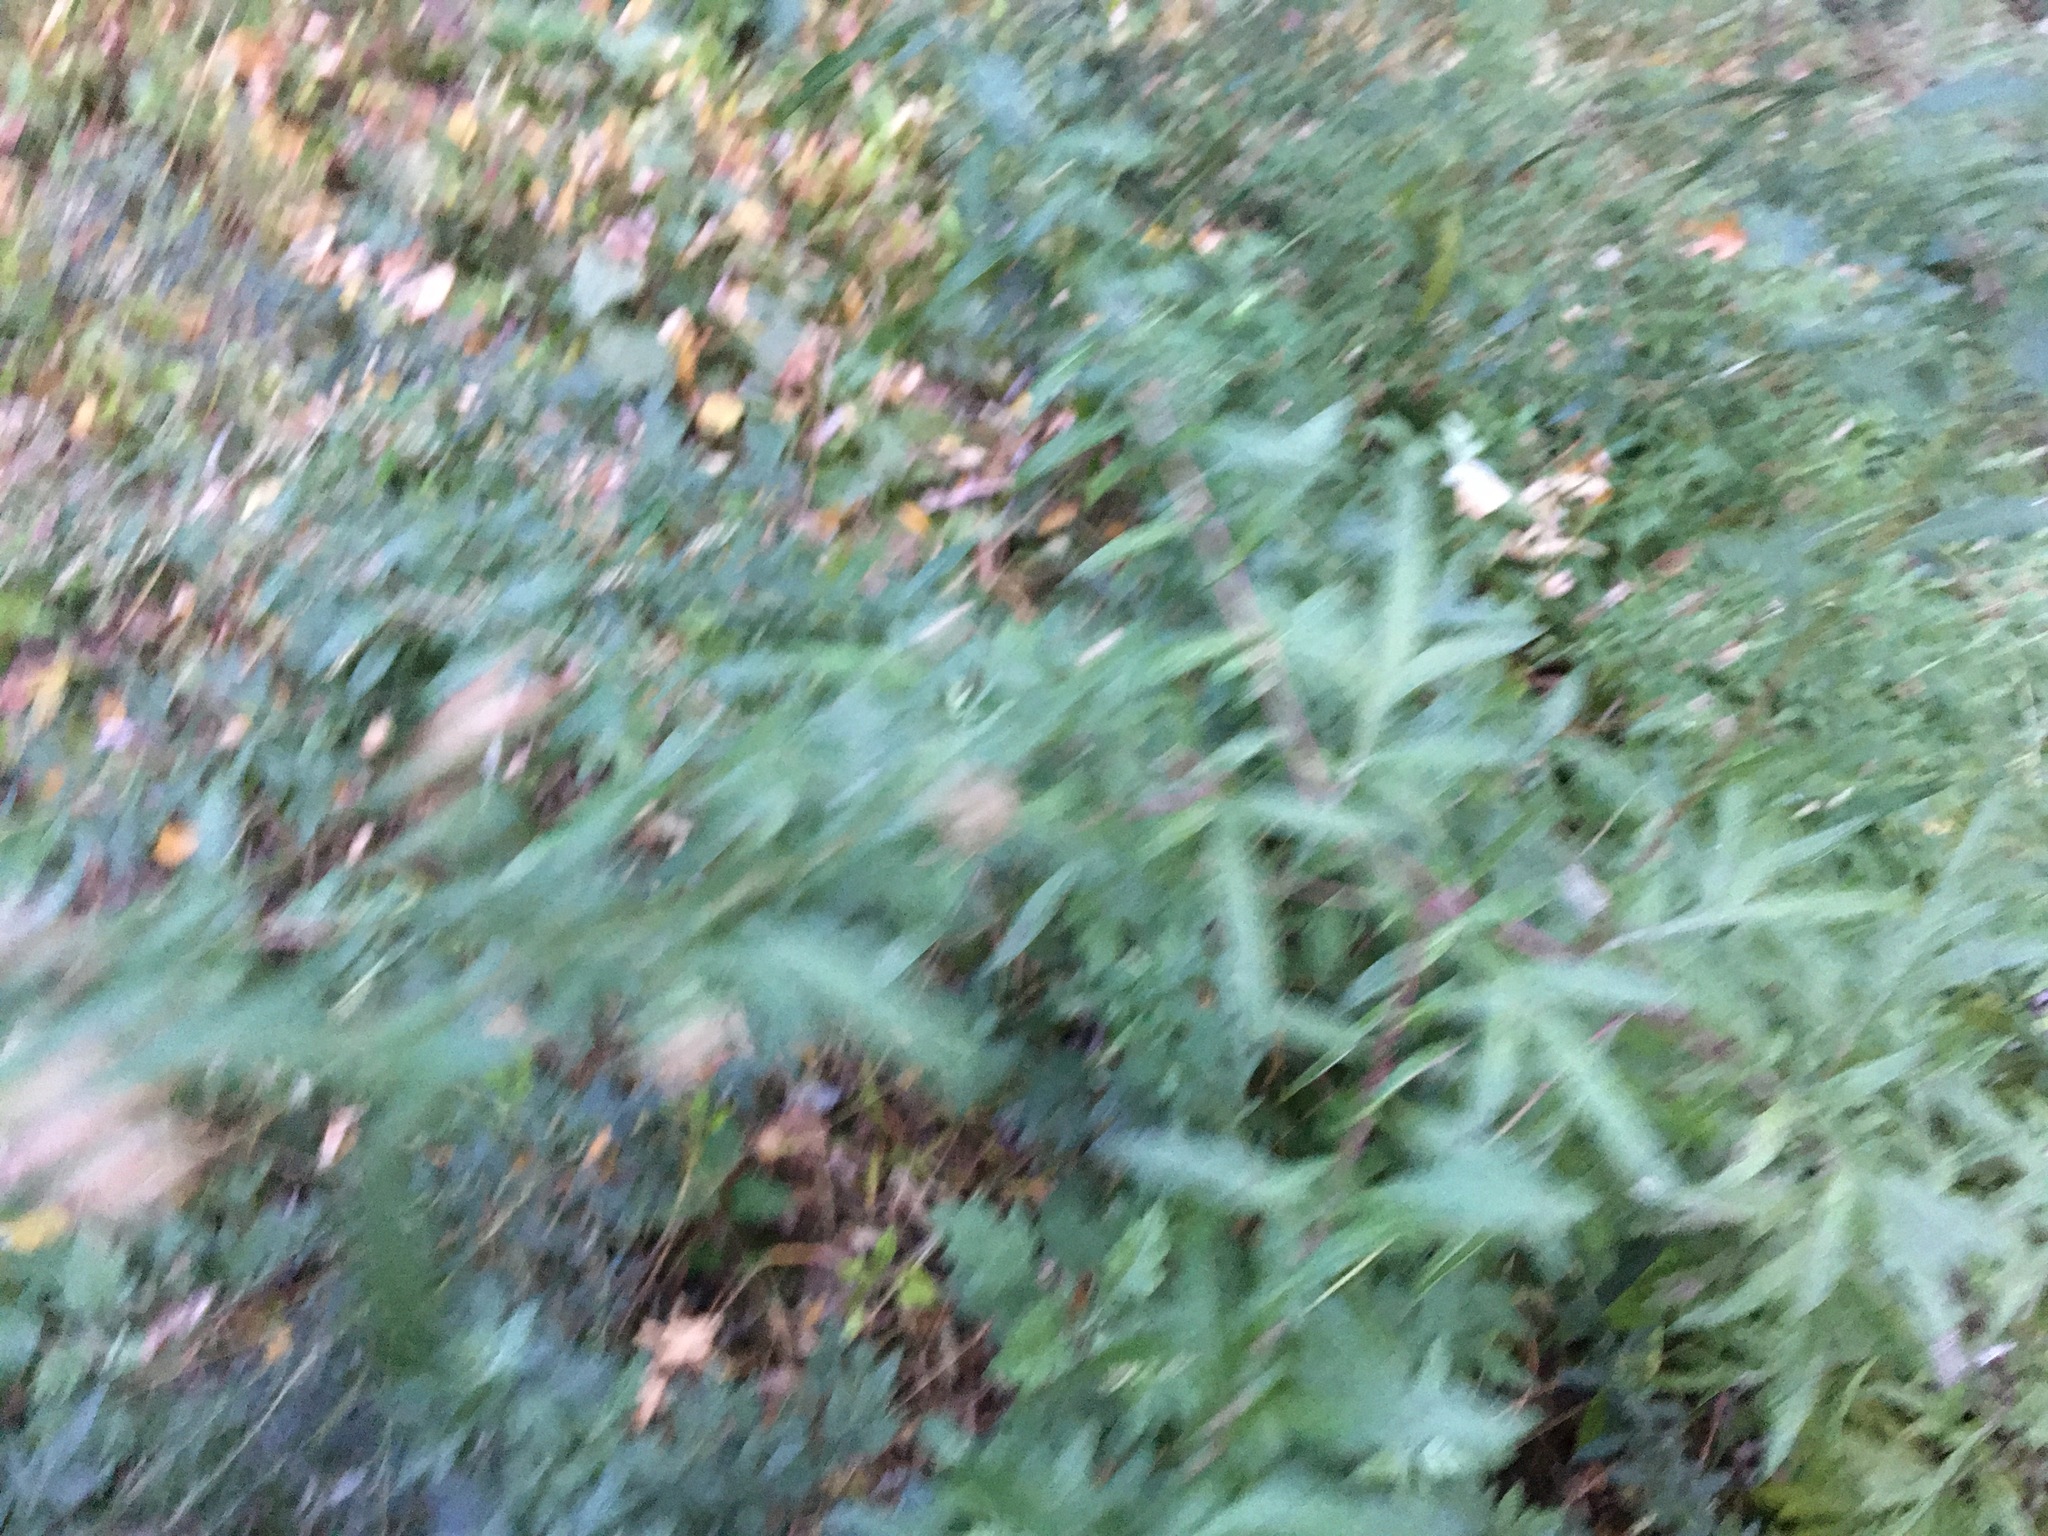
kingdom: Plantae
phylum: Tracheophyta
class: Magnoliopsida
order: Asterales
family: Asteraceae
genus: Artemisia
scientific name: Artemisia vulgaris
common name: Mugwort
